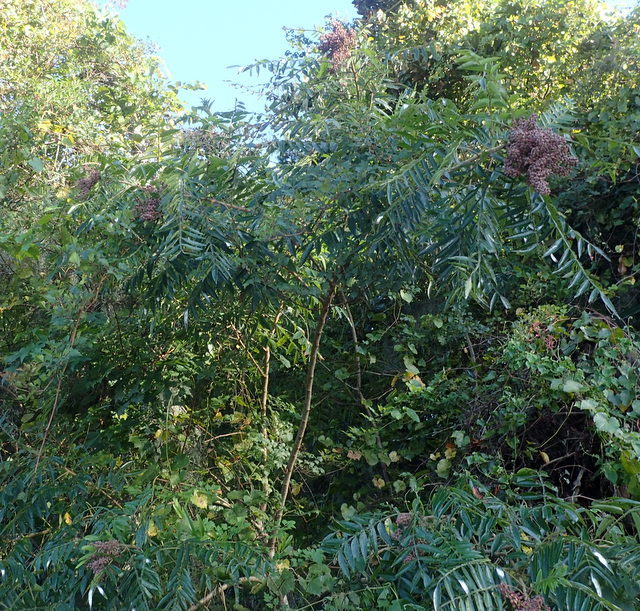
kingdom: Plantae
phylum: Tracheophyta
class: Magnoliopsida
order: Sapindales
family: Anacardiaceae
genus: Rhus
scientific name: Rhus copallina
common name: Shining sumac
